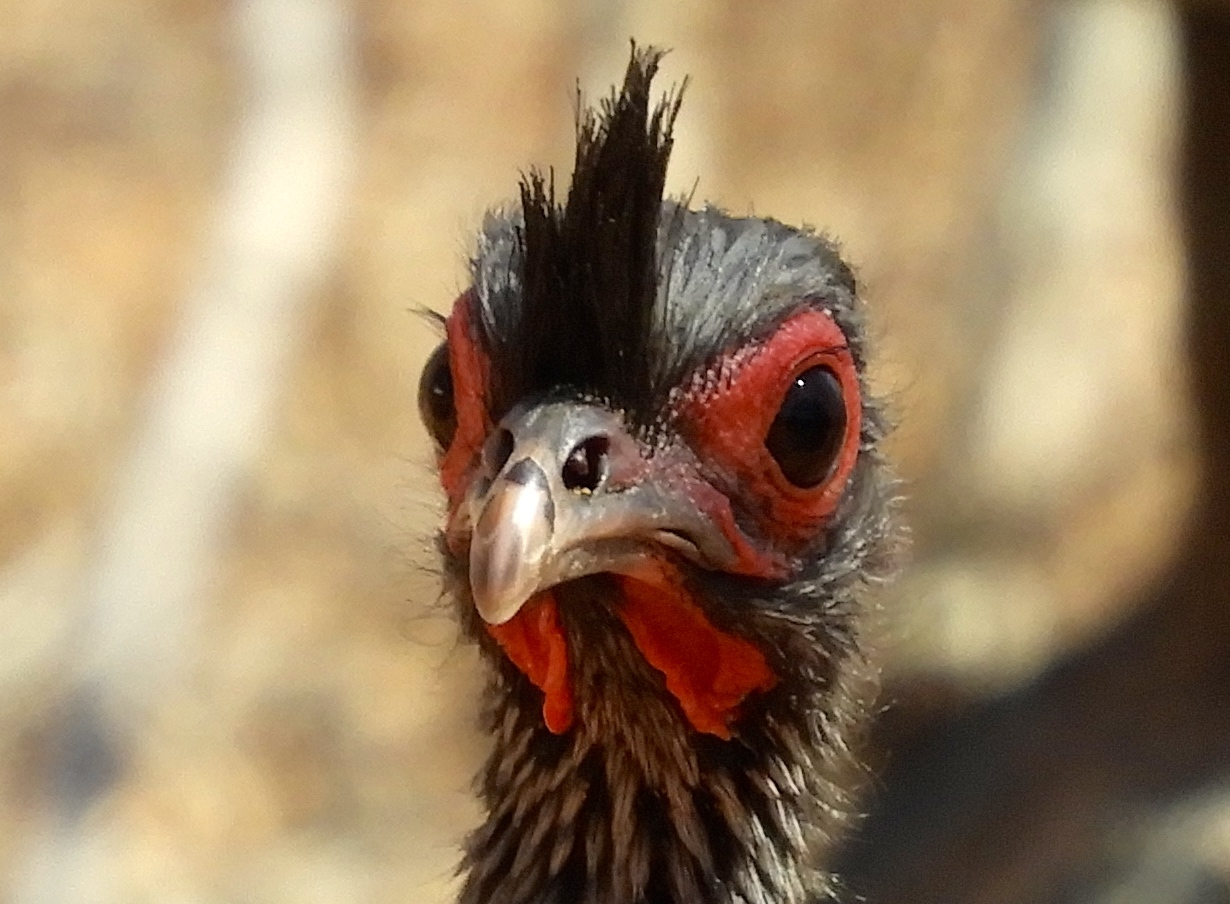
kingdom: Animalia
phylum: Chordata
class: Aves
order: Galliformes
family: Cracidae
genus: Ortalis
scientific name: Ortalis wagleri
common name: Rufous-bellied chachalaca
